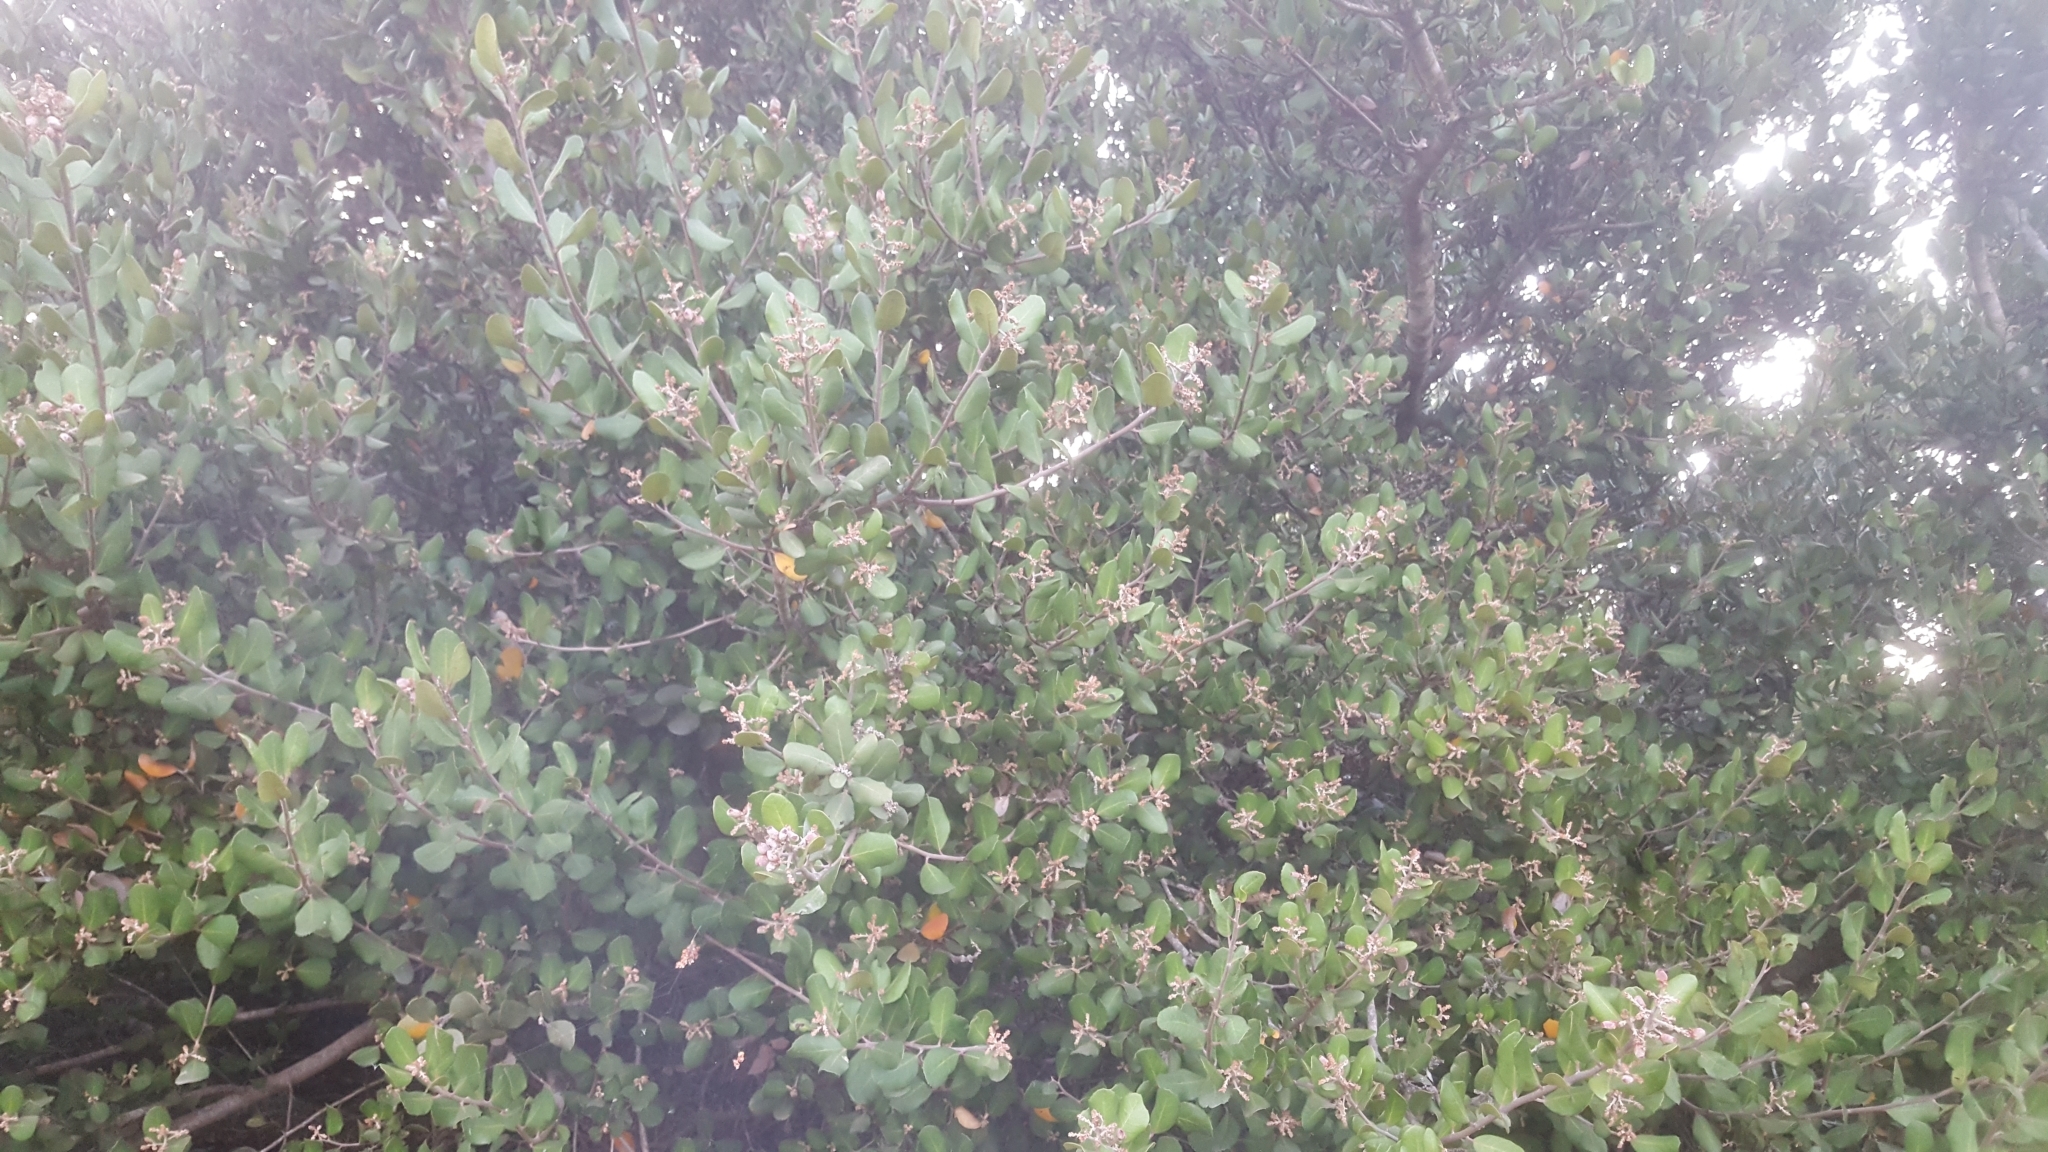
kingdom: Plantae
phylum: Tracheophyta
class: Magnoliopsida
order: Sapindales
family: Anacardiaceae
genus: Rhus
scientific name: Rhus integrifolia
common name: Lemonade sumac
